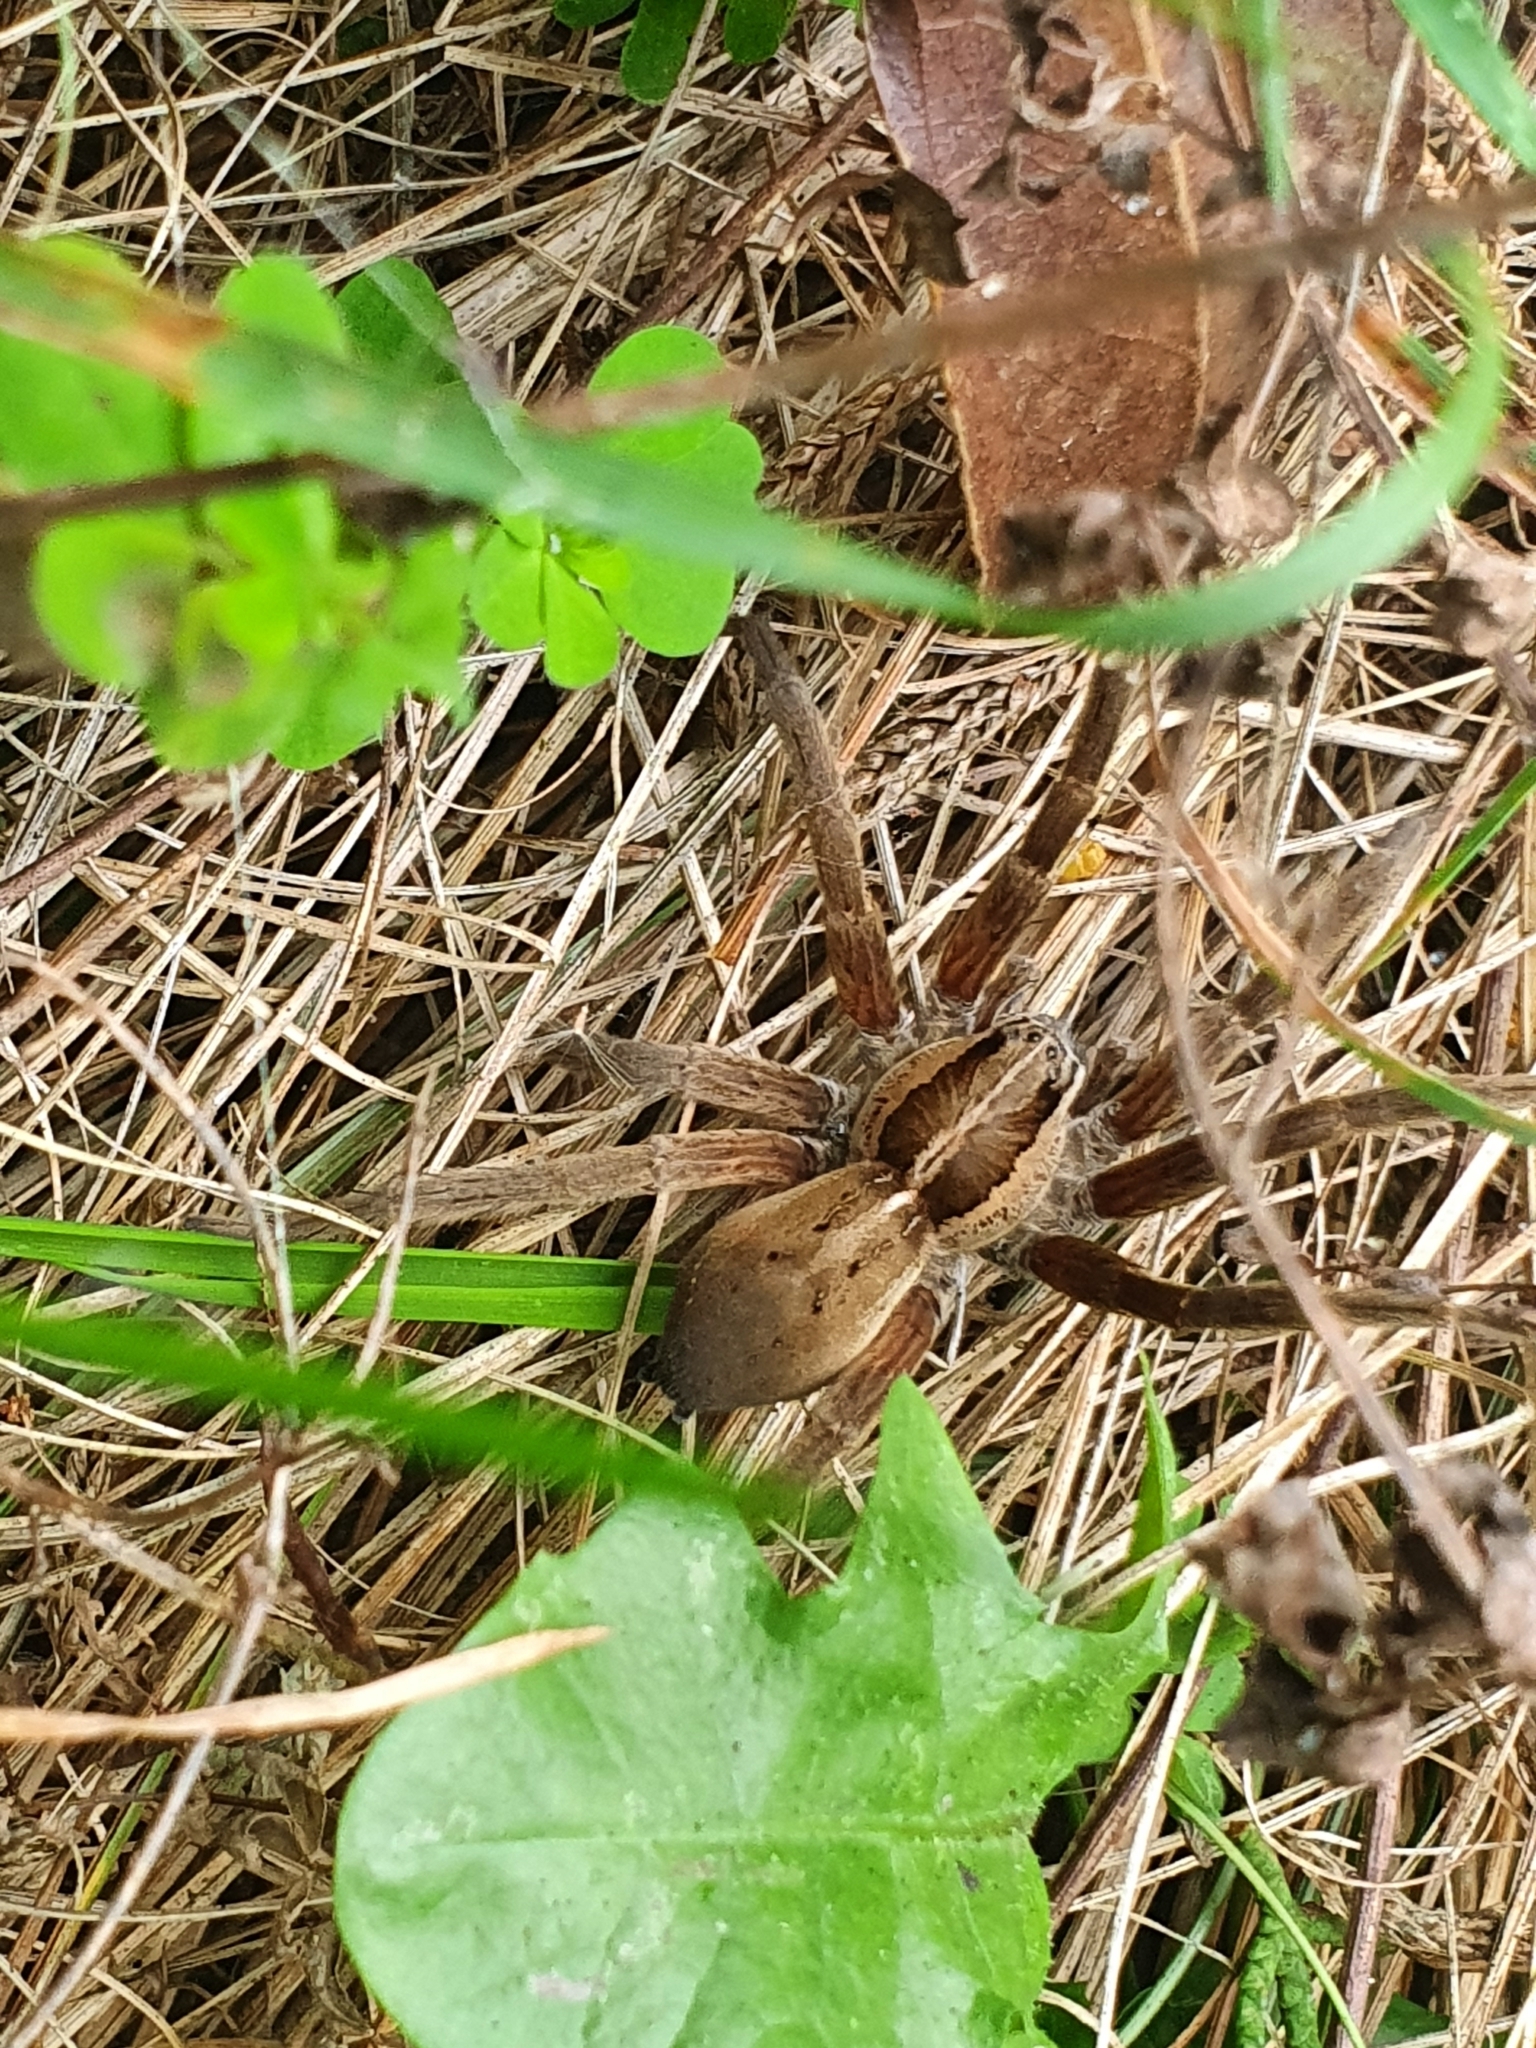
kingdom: Animalia
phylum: Arthropoda
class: Arachnida
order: Araneae
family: Pisauridae
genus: Dolomedes
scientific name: Dolomedes minor
